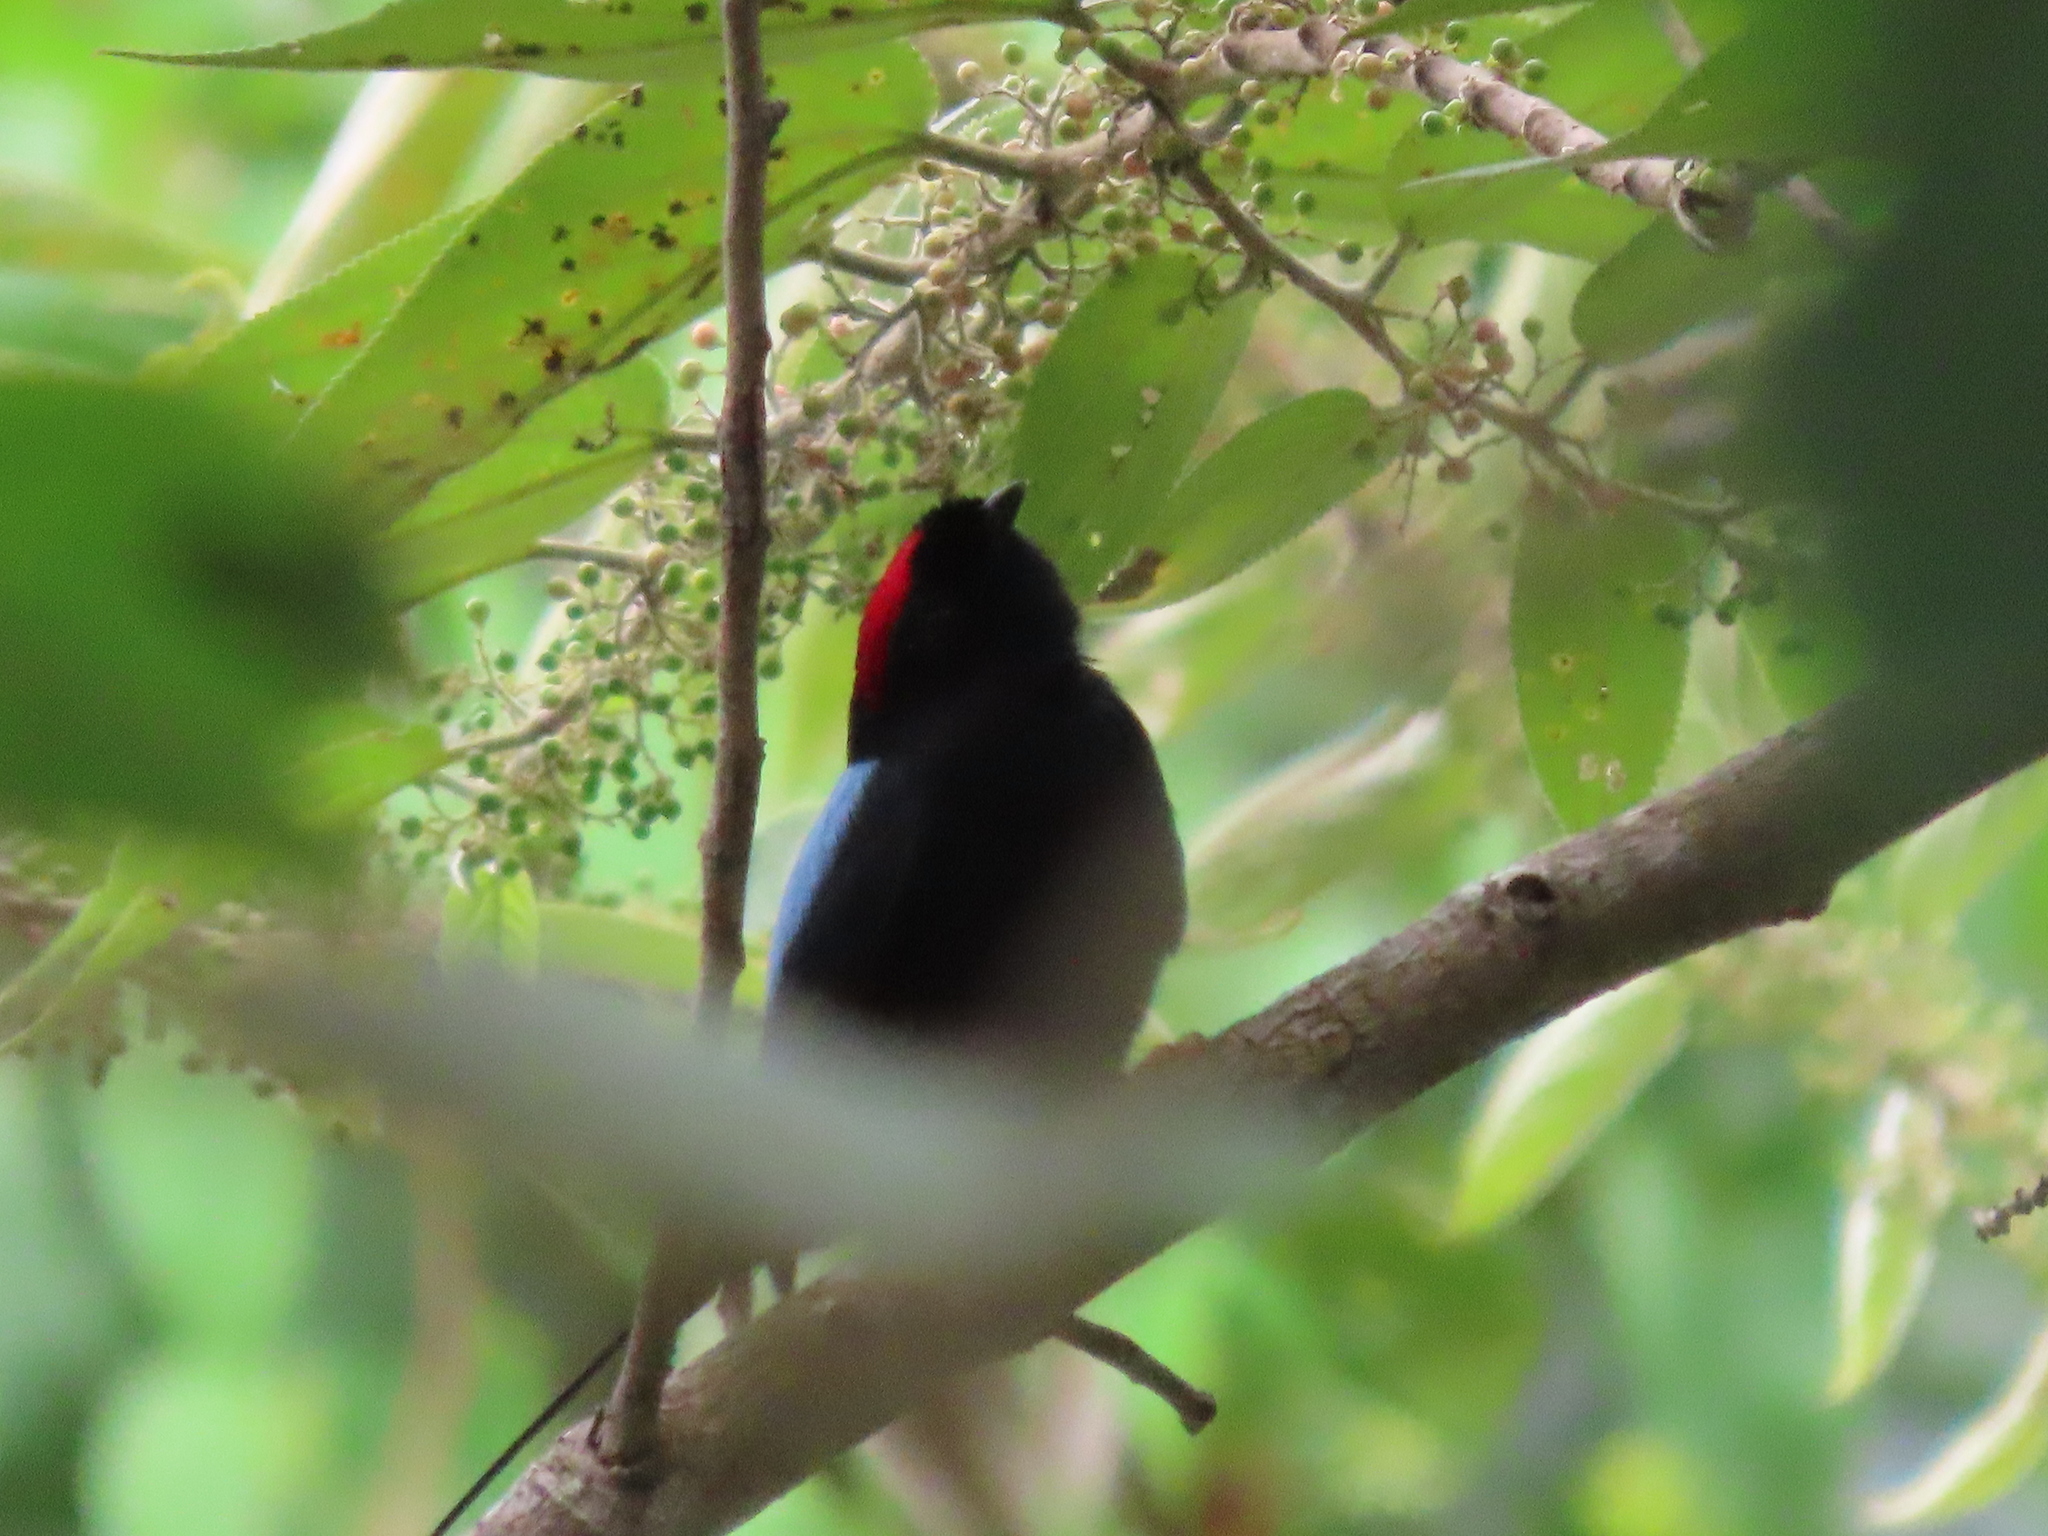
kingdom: Animalia
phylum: Chordata
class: Aves
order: Passeriformes
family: Pipridae
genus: Chiroxiphia
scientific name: Chiroxiphia linearis
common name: Long-tailed manakin
